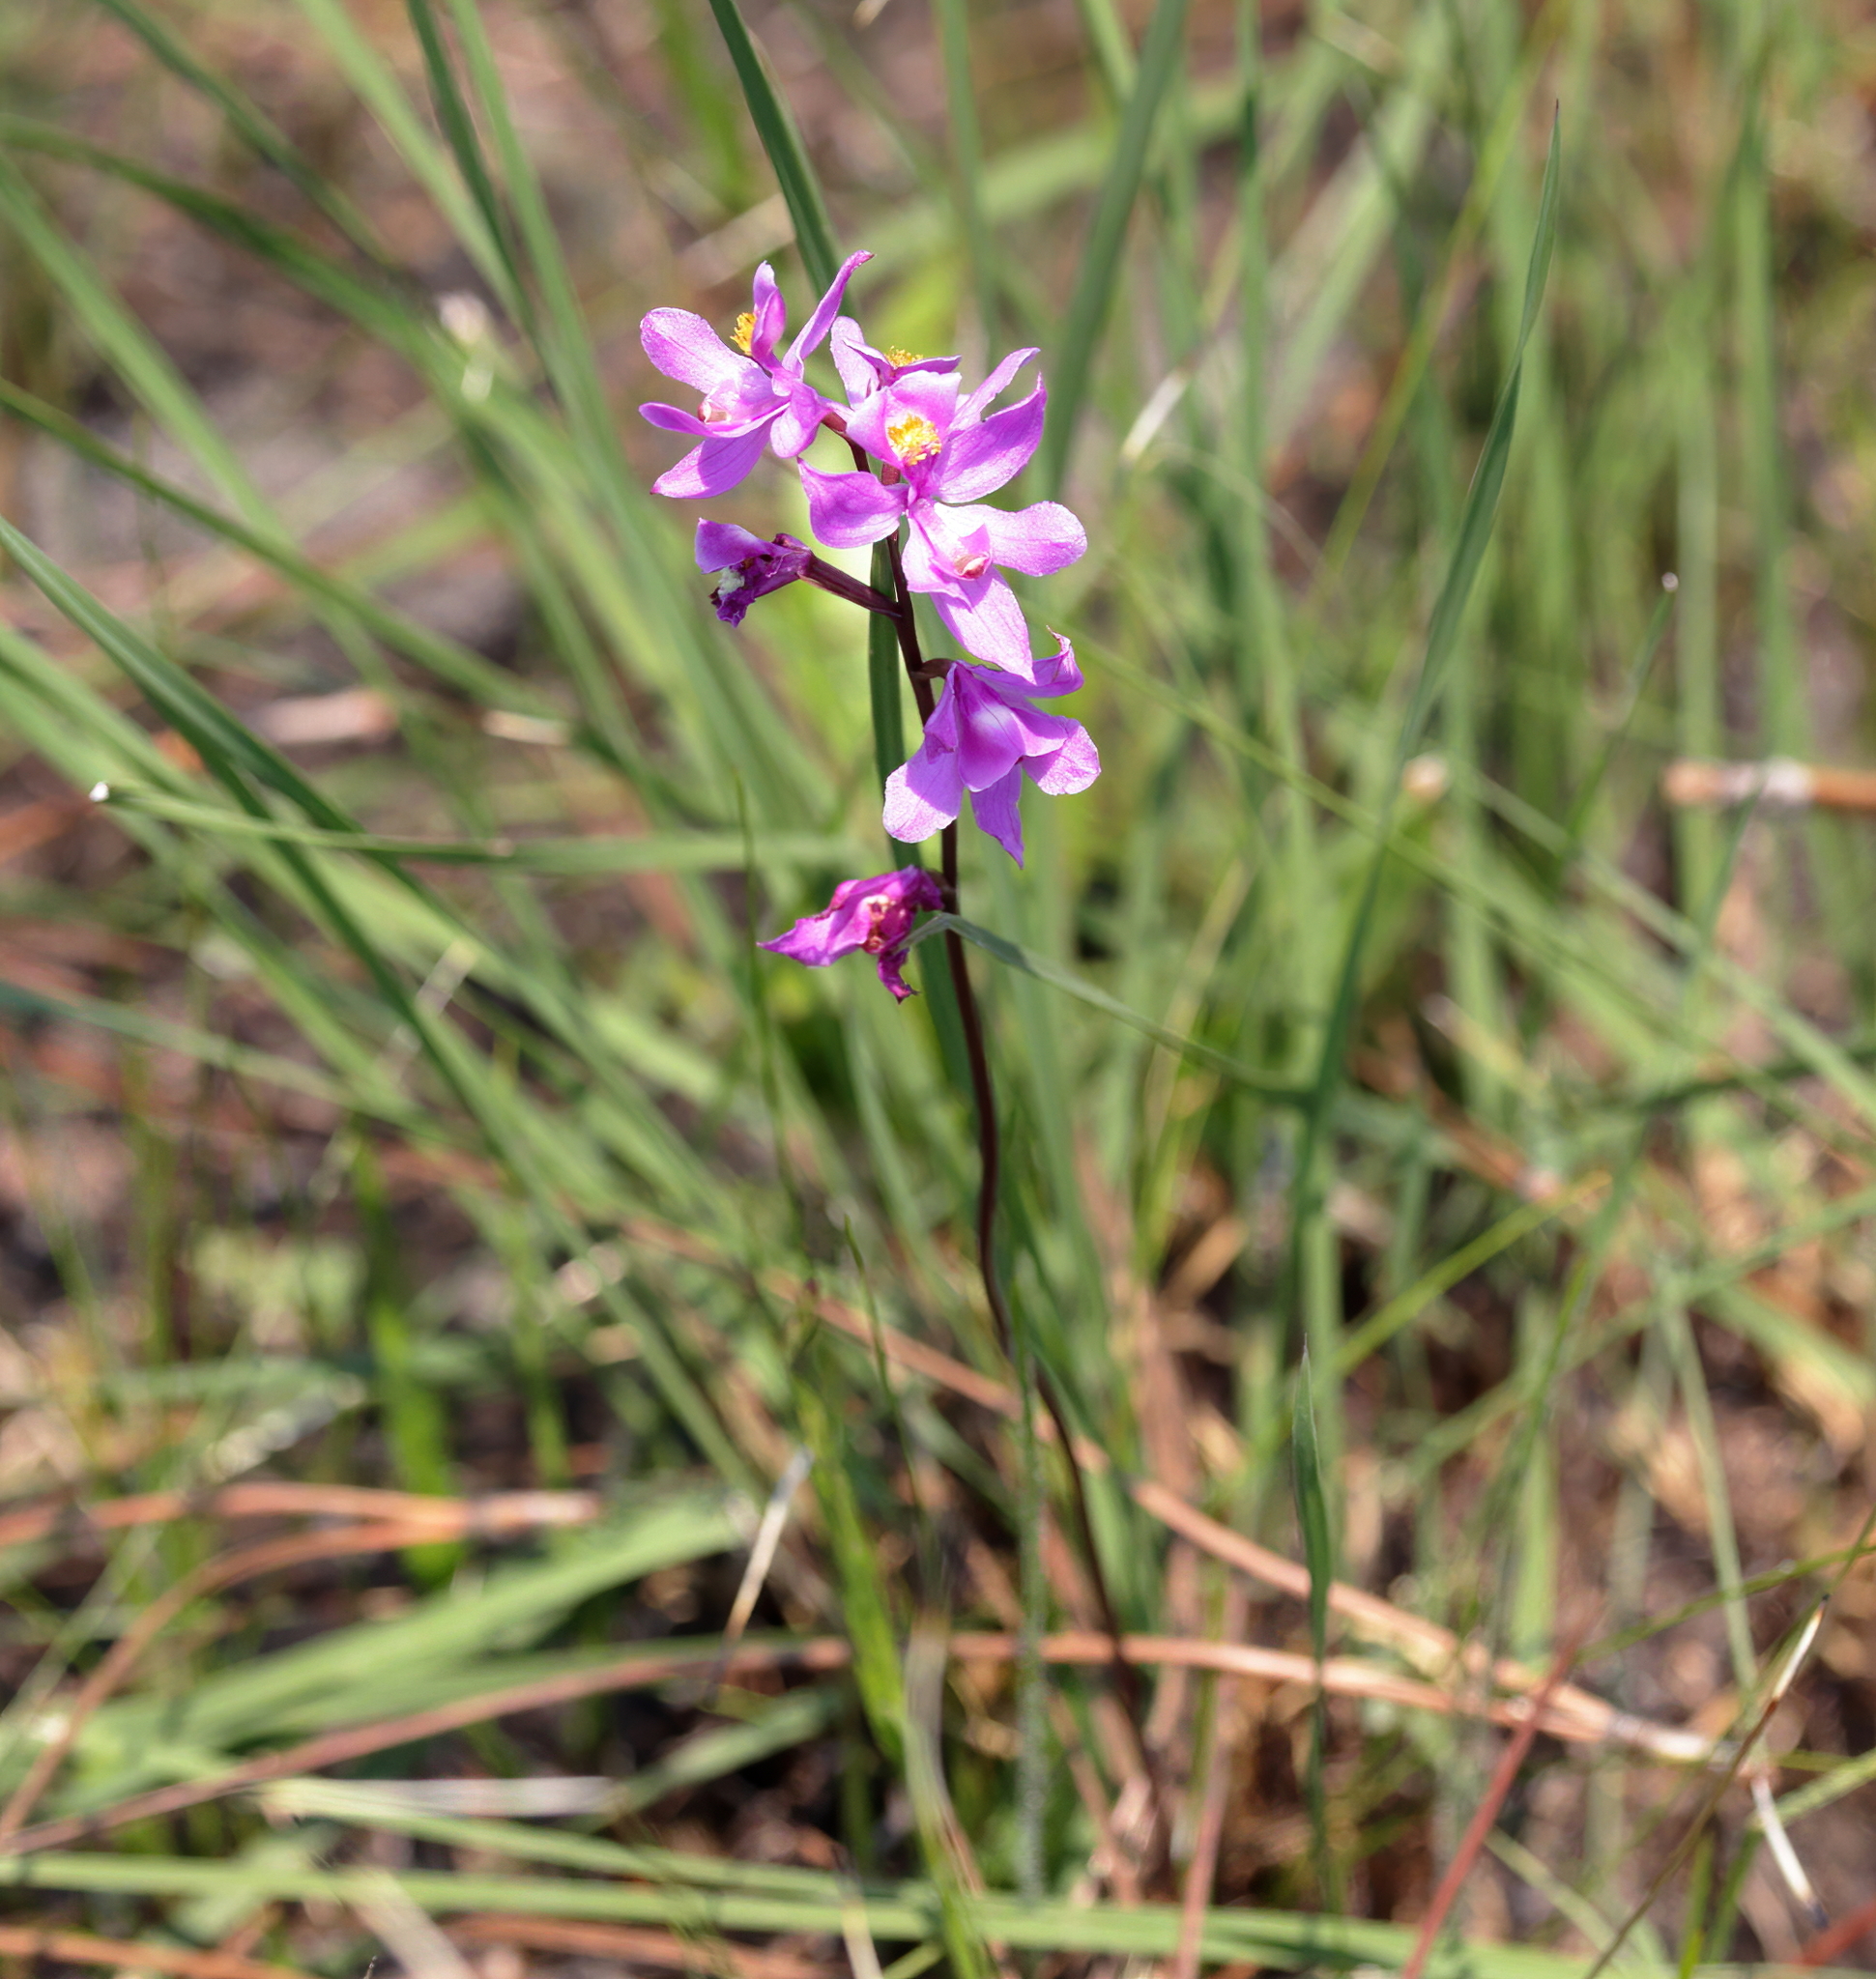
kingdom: Plantae
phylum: Tracheophyta
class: Liliopsida
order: Asparagales
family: Orchidaceae
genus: Calopogon
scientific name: Calopogon multiflorus
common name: Many-flowered grass-pink orchid
